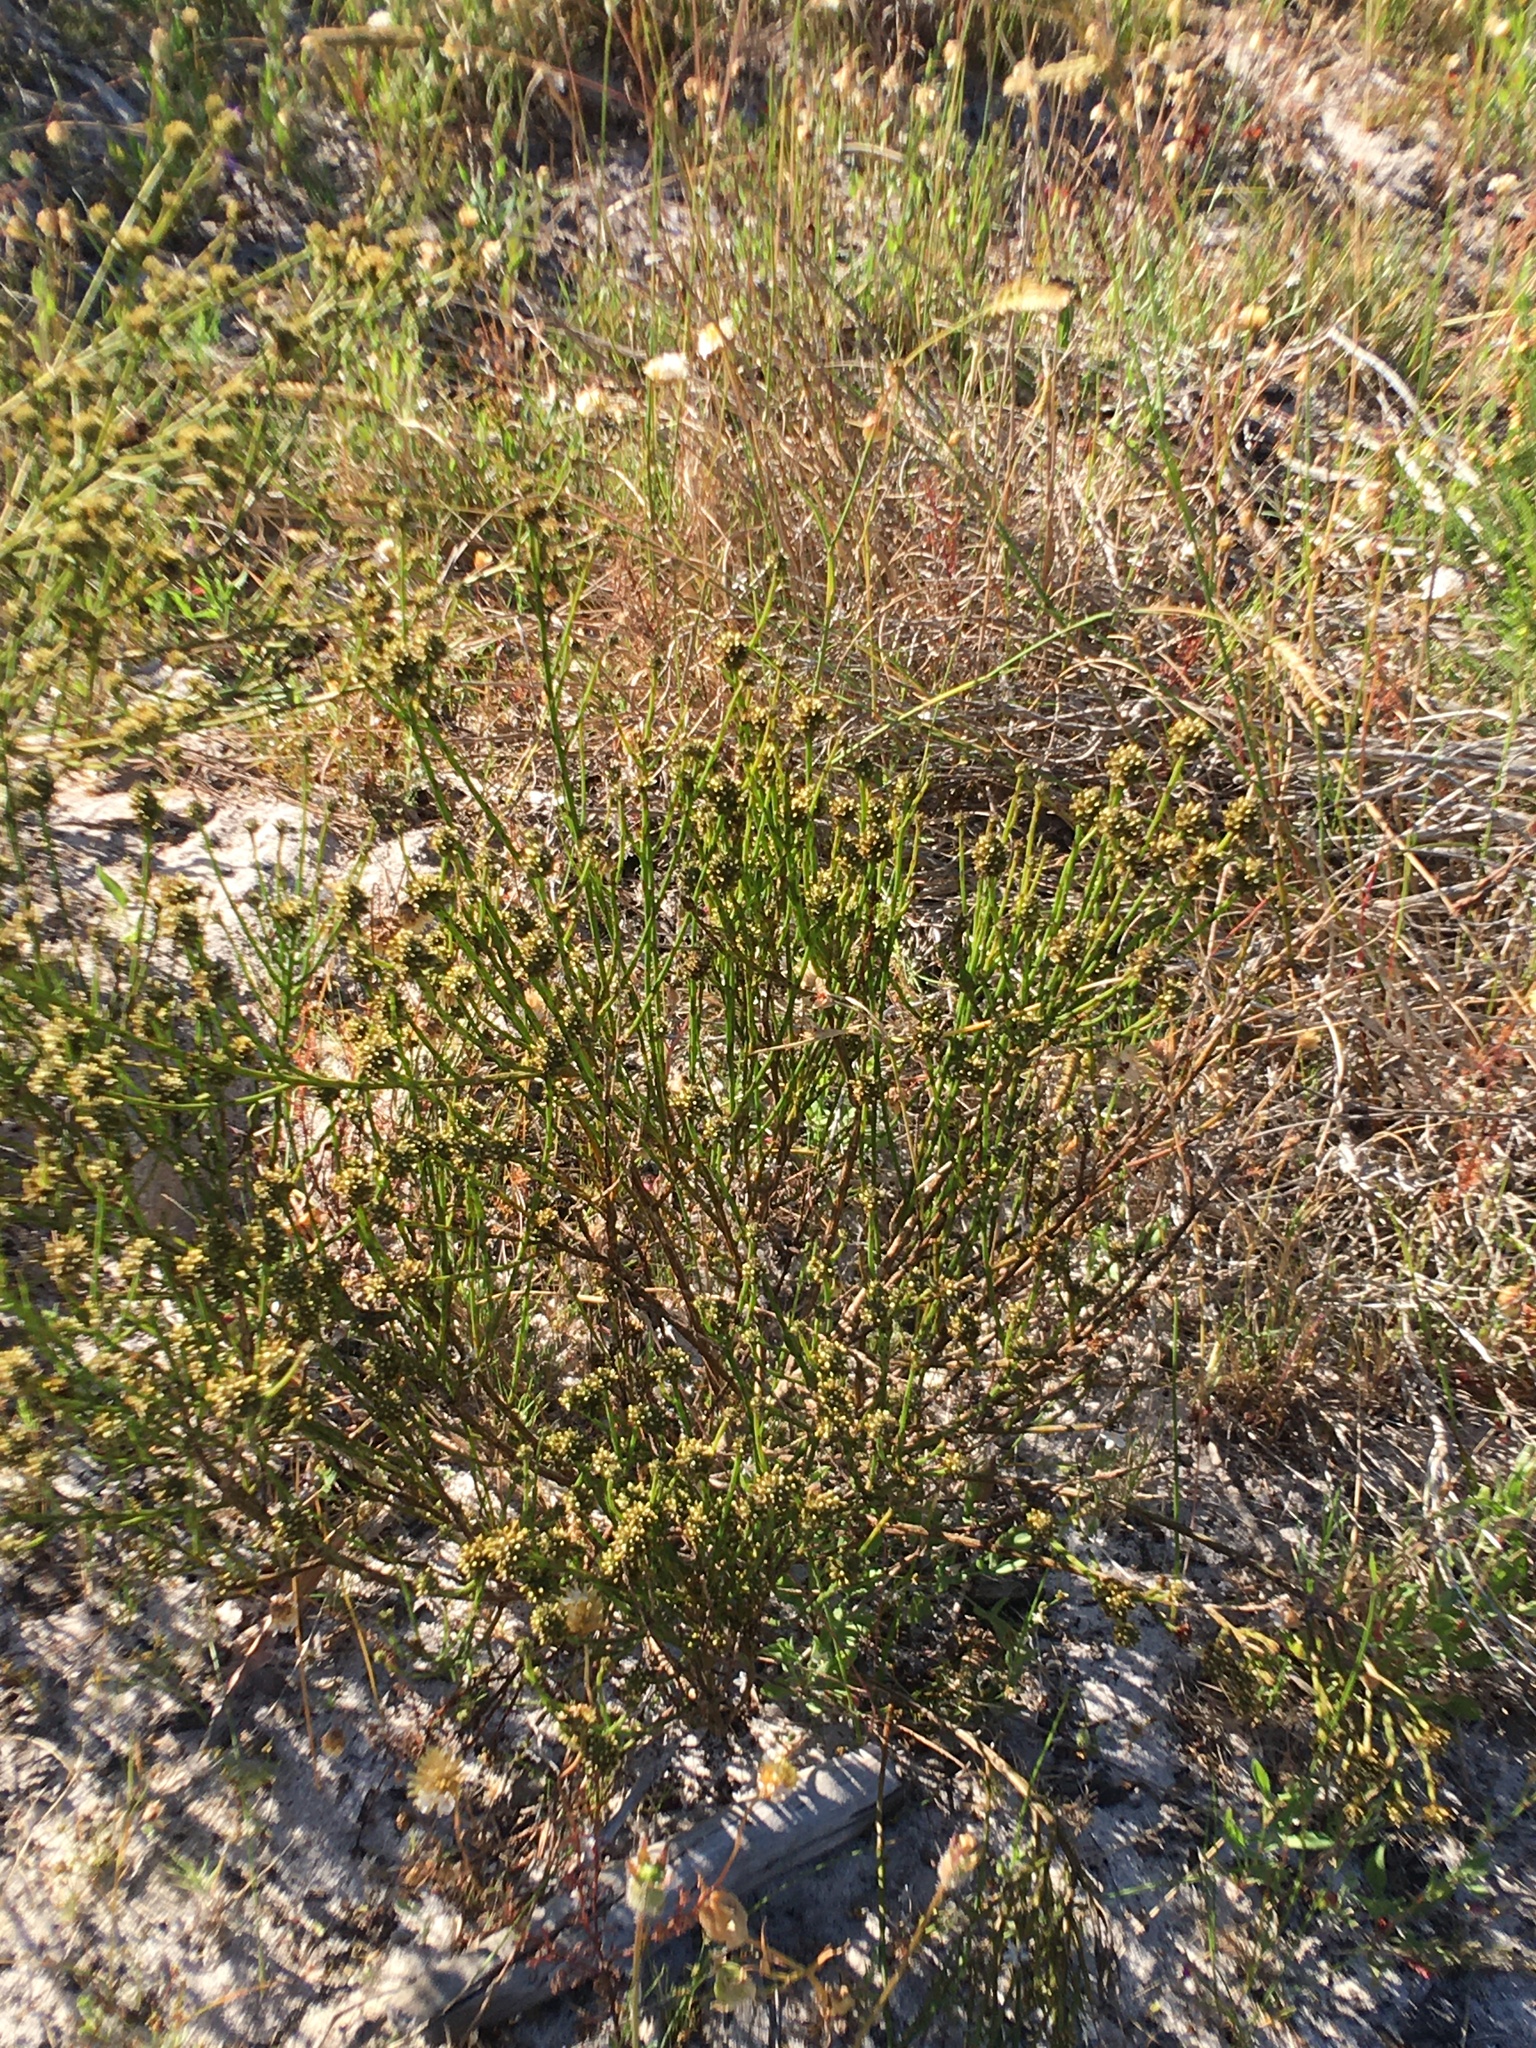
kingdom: Plantae
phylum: Tracheophyta
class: Magnoliopsida
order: Santalales
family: Thesiaceae
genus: Thesium
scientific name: Thesium aggregatum
